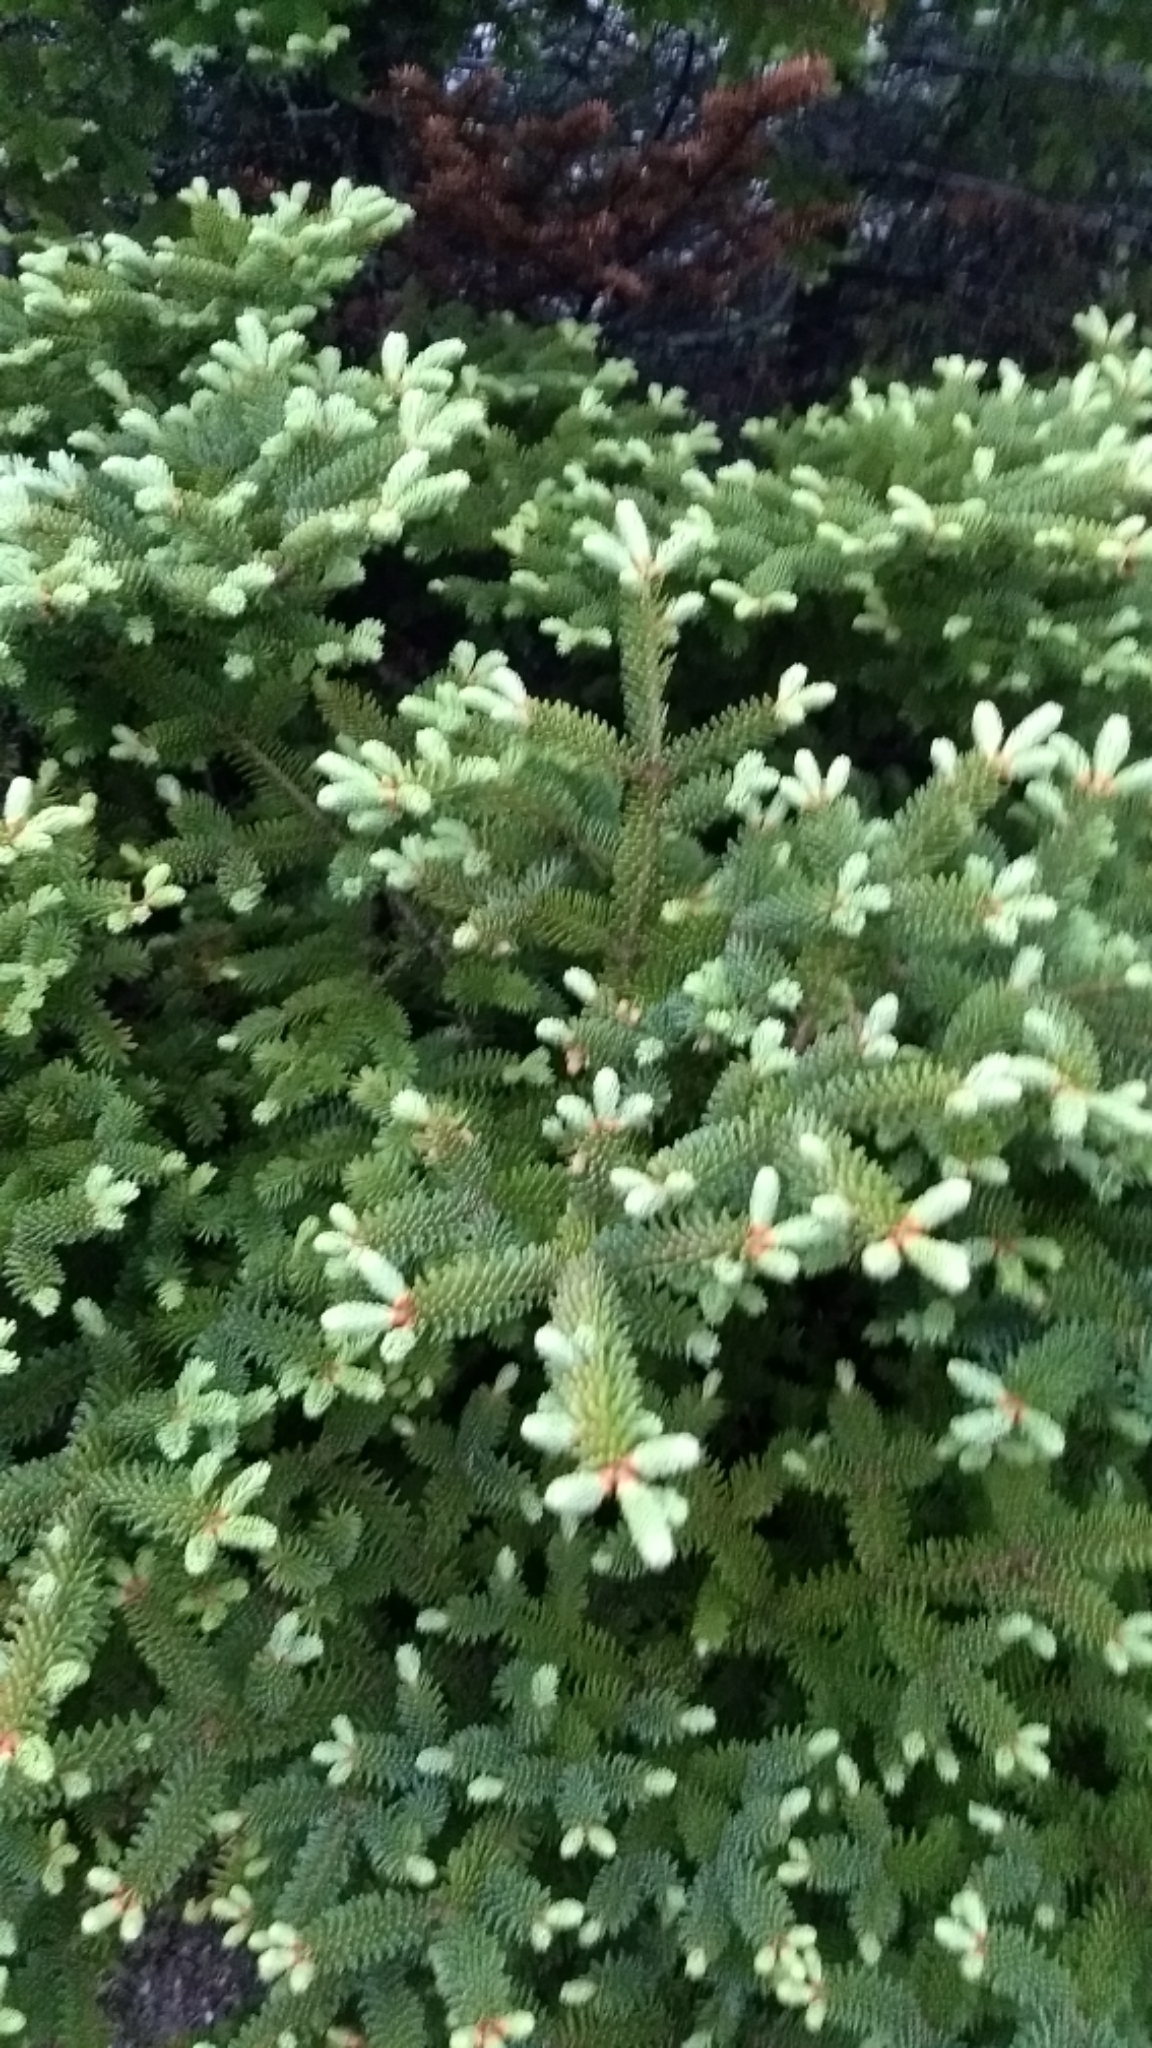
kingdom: Plantae
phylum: Tracheophyta
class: Pinopsida
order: Pinales
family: Pinaceae
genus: Abies
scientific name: Abies balsamea
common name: Balsam fir
